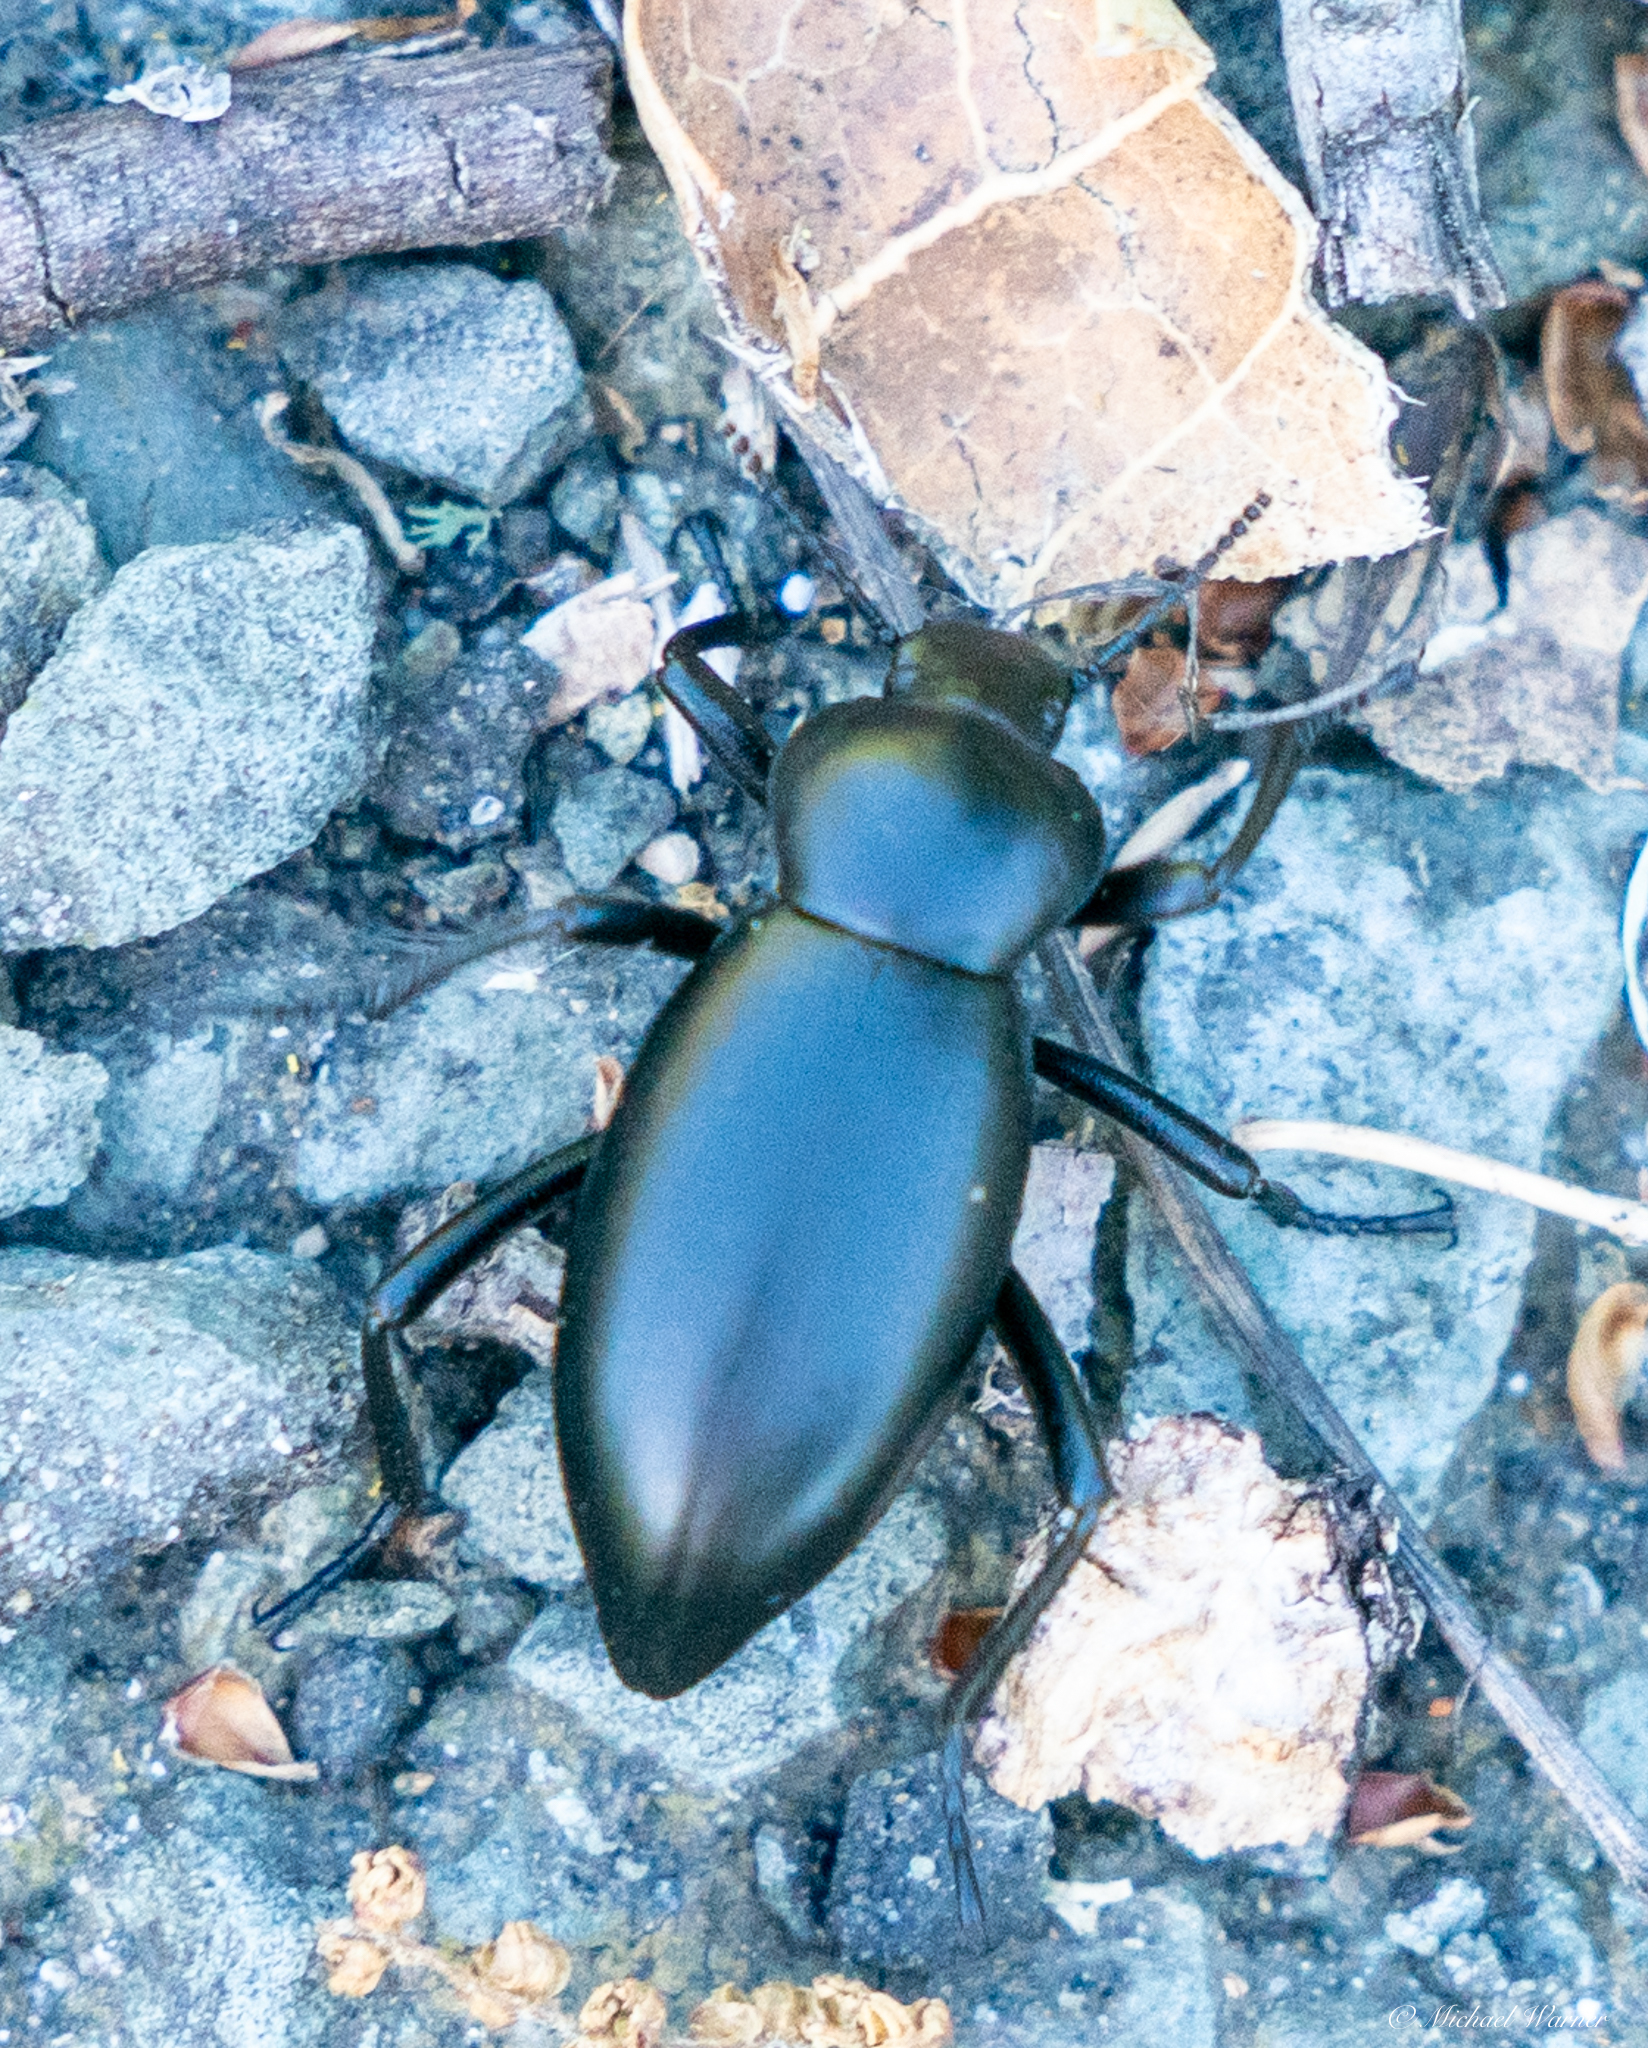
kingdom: Animalia
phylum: Arthropoda
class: Insecta
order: Coleoptera
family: Tenebrionidae
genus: Eleodes
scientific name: Eleodes dentipes
